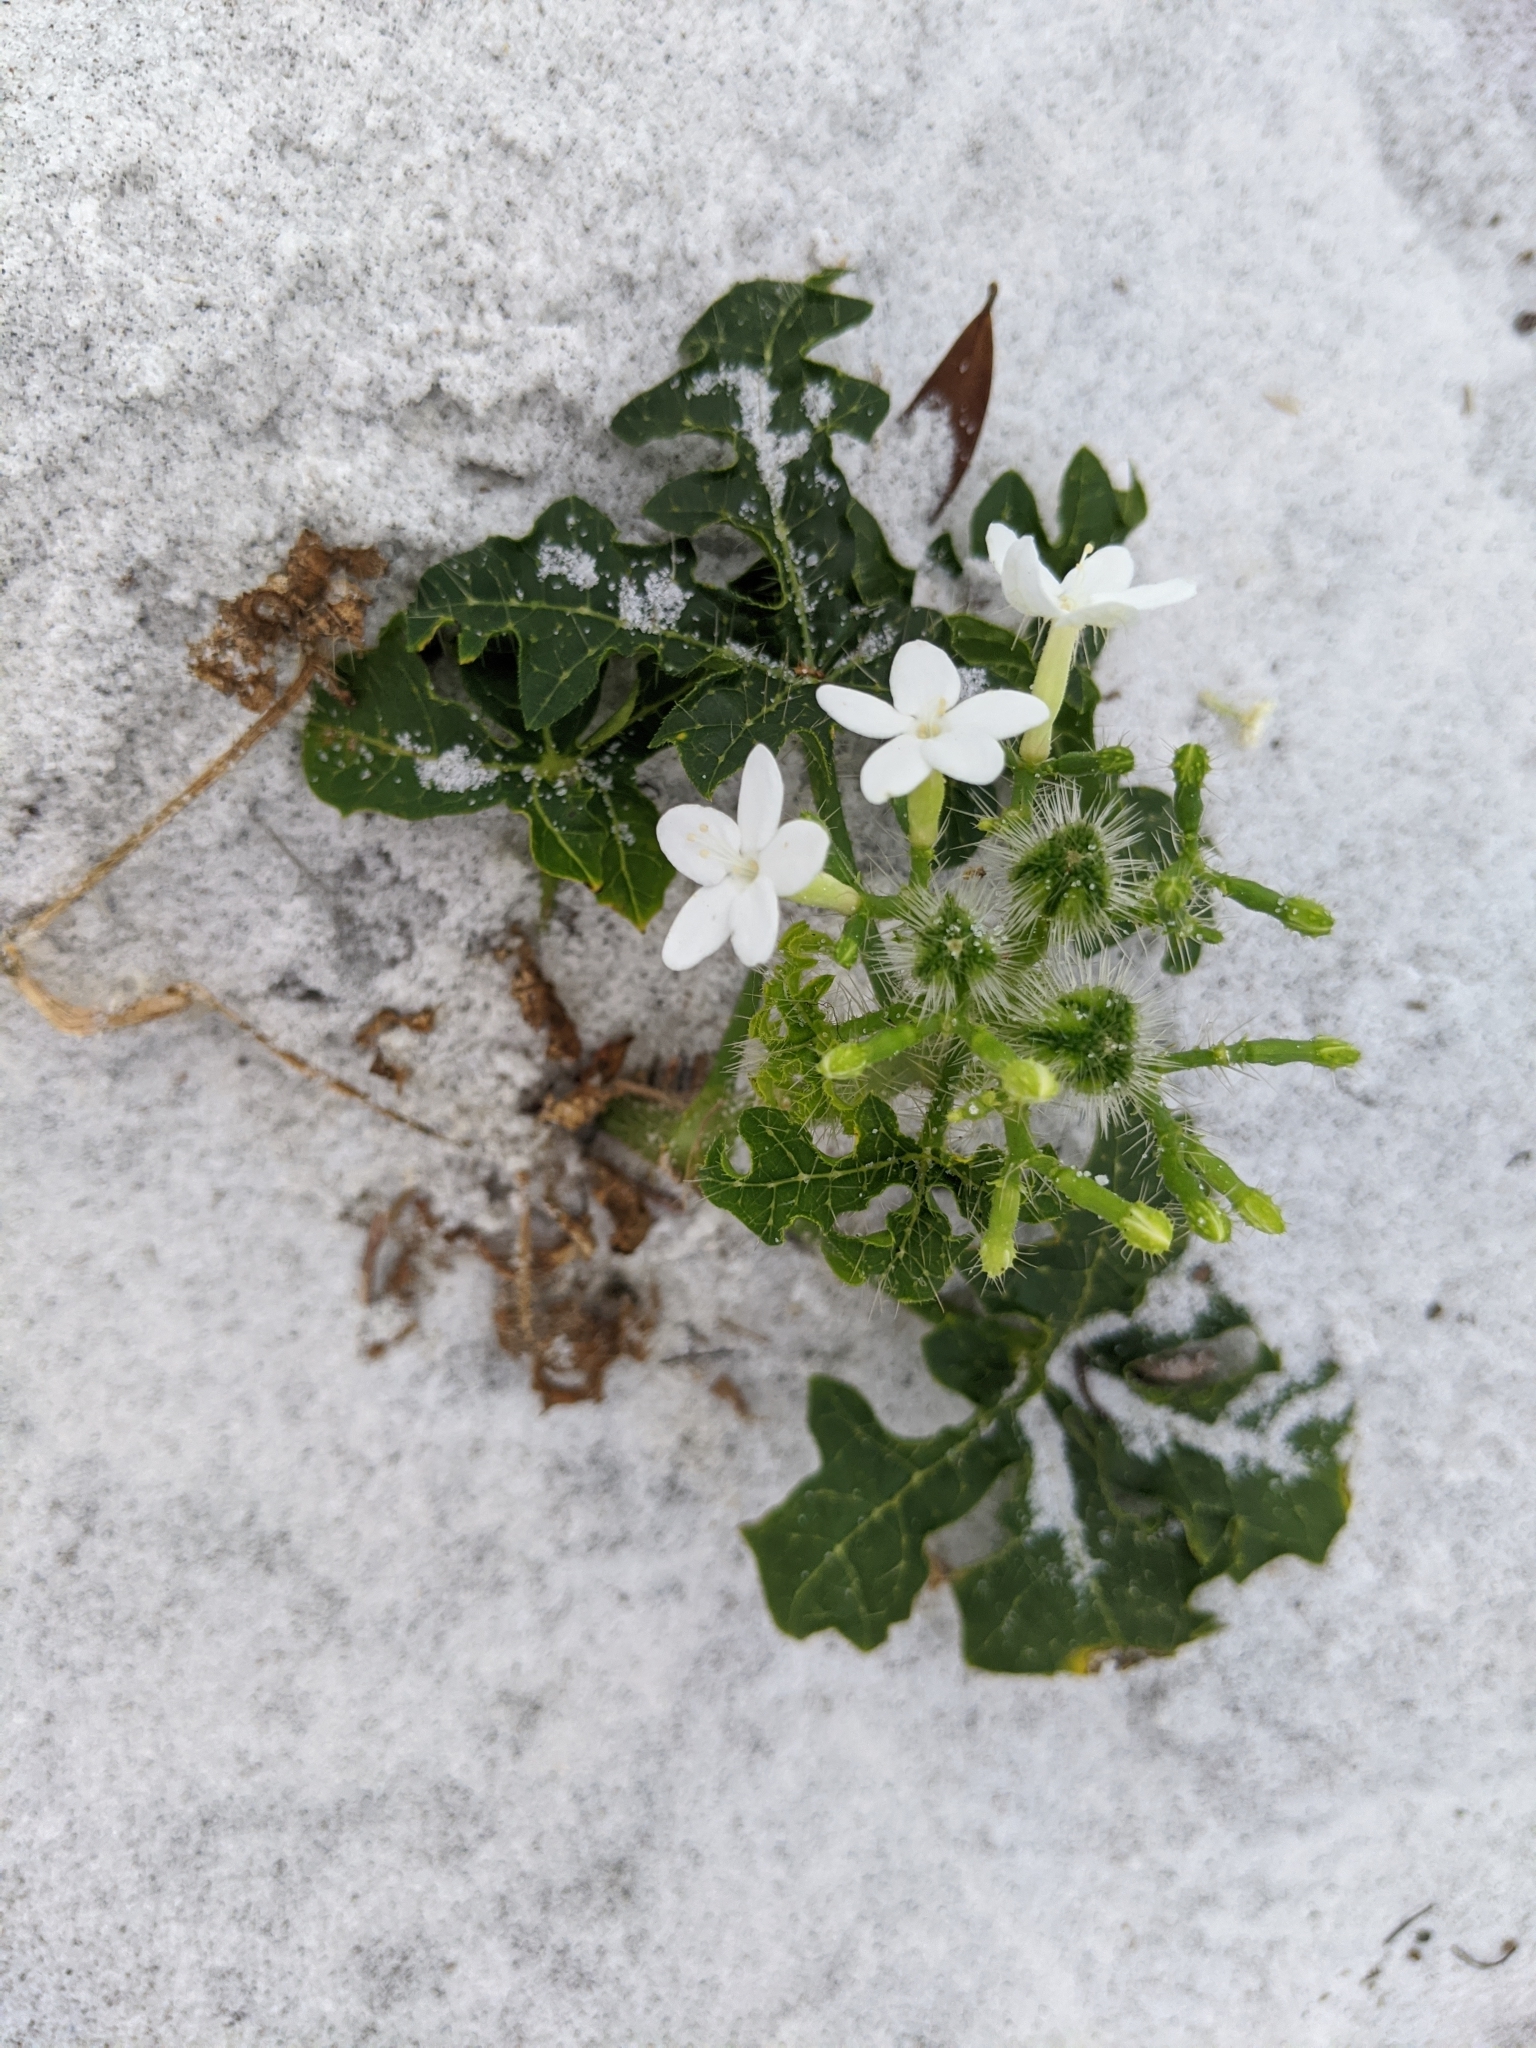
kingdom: Plantae
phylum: Tracheophyta
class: Magnoliopsida
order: Malpighiales
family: Euphorbiaceae
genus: Cnidoscolus
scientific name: Cnidoscolus stimulosus
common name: Bull-nettle
